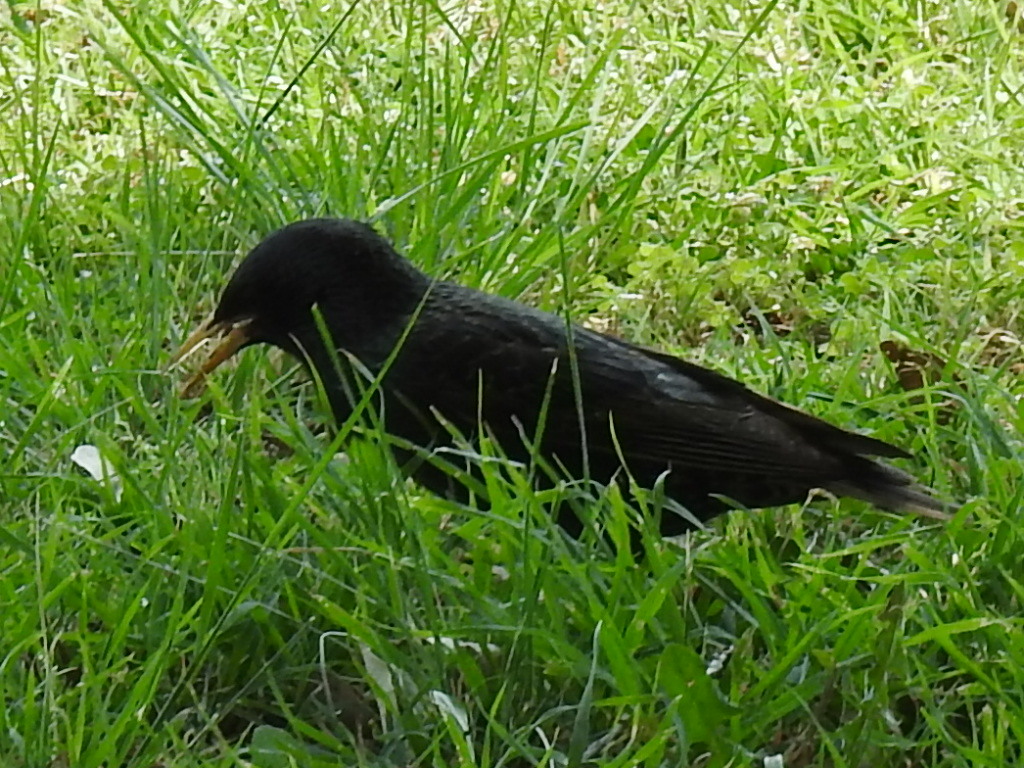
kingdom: Animalia
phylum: Chordata
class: Aves
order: Passeriformes
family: Sturnidae
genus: Sturnus
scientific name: Sturnus vulgaris
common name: Common starling
